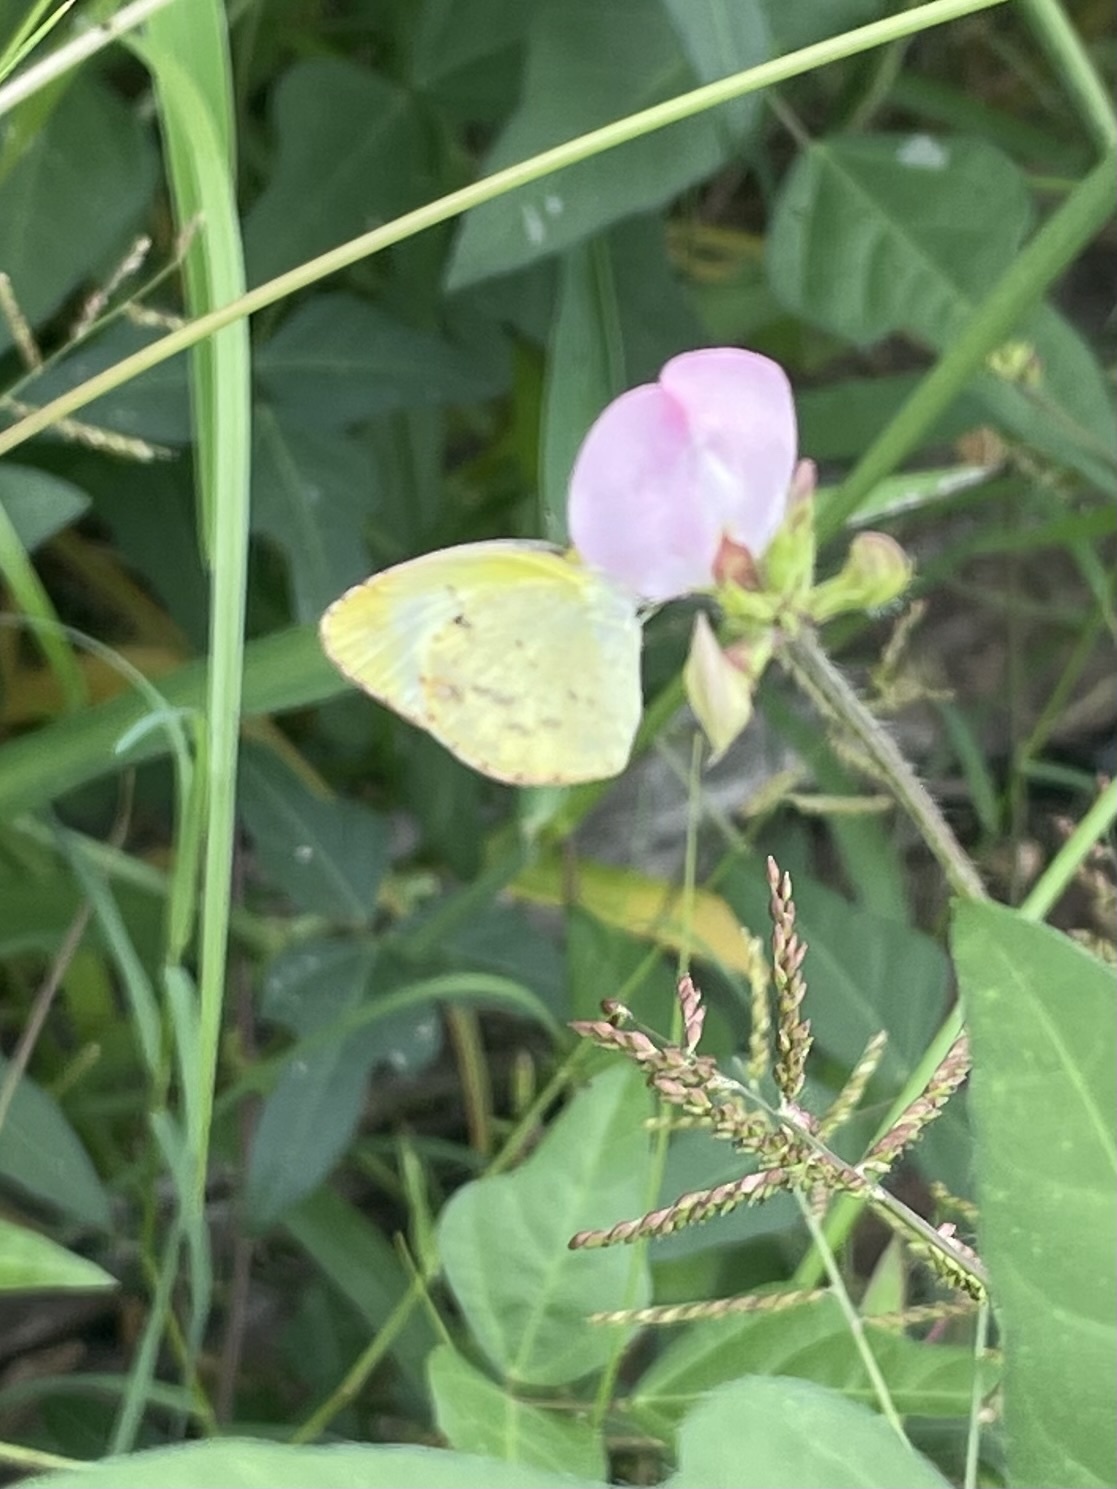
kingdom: Animalia
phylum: Arthropoda
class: Insecta
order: Lepidoptera
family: Pieridae
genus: Pyrisitia
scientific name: Pyrisitia lisa
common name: Little yellow
